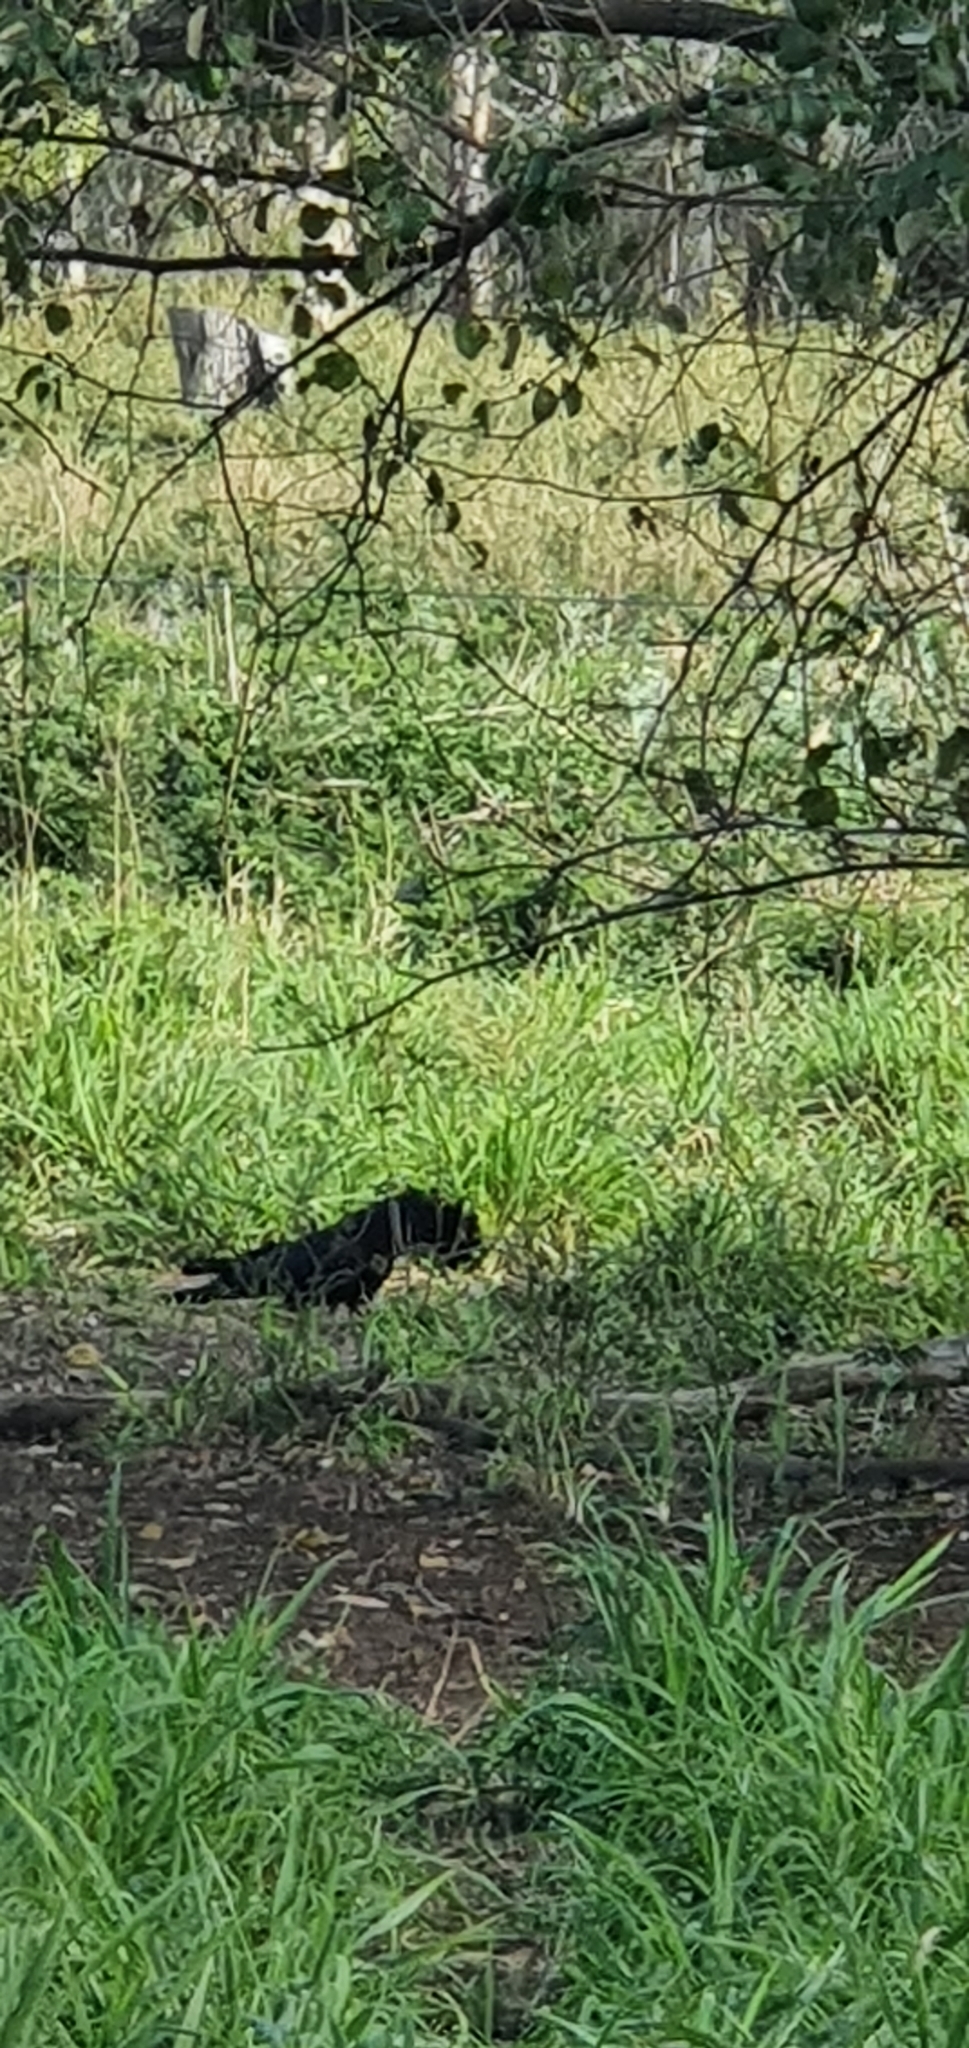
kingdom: Animalia
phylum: Chordata
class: Aves
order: Psittaciformes
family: Psittacidae
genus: Calyptorhynchus
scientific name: Calyptorhynchus banksii
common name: Red-tailed black cockatoo
